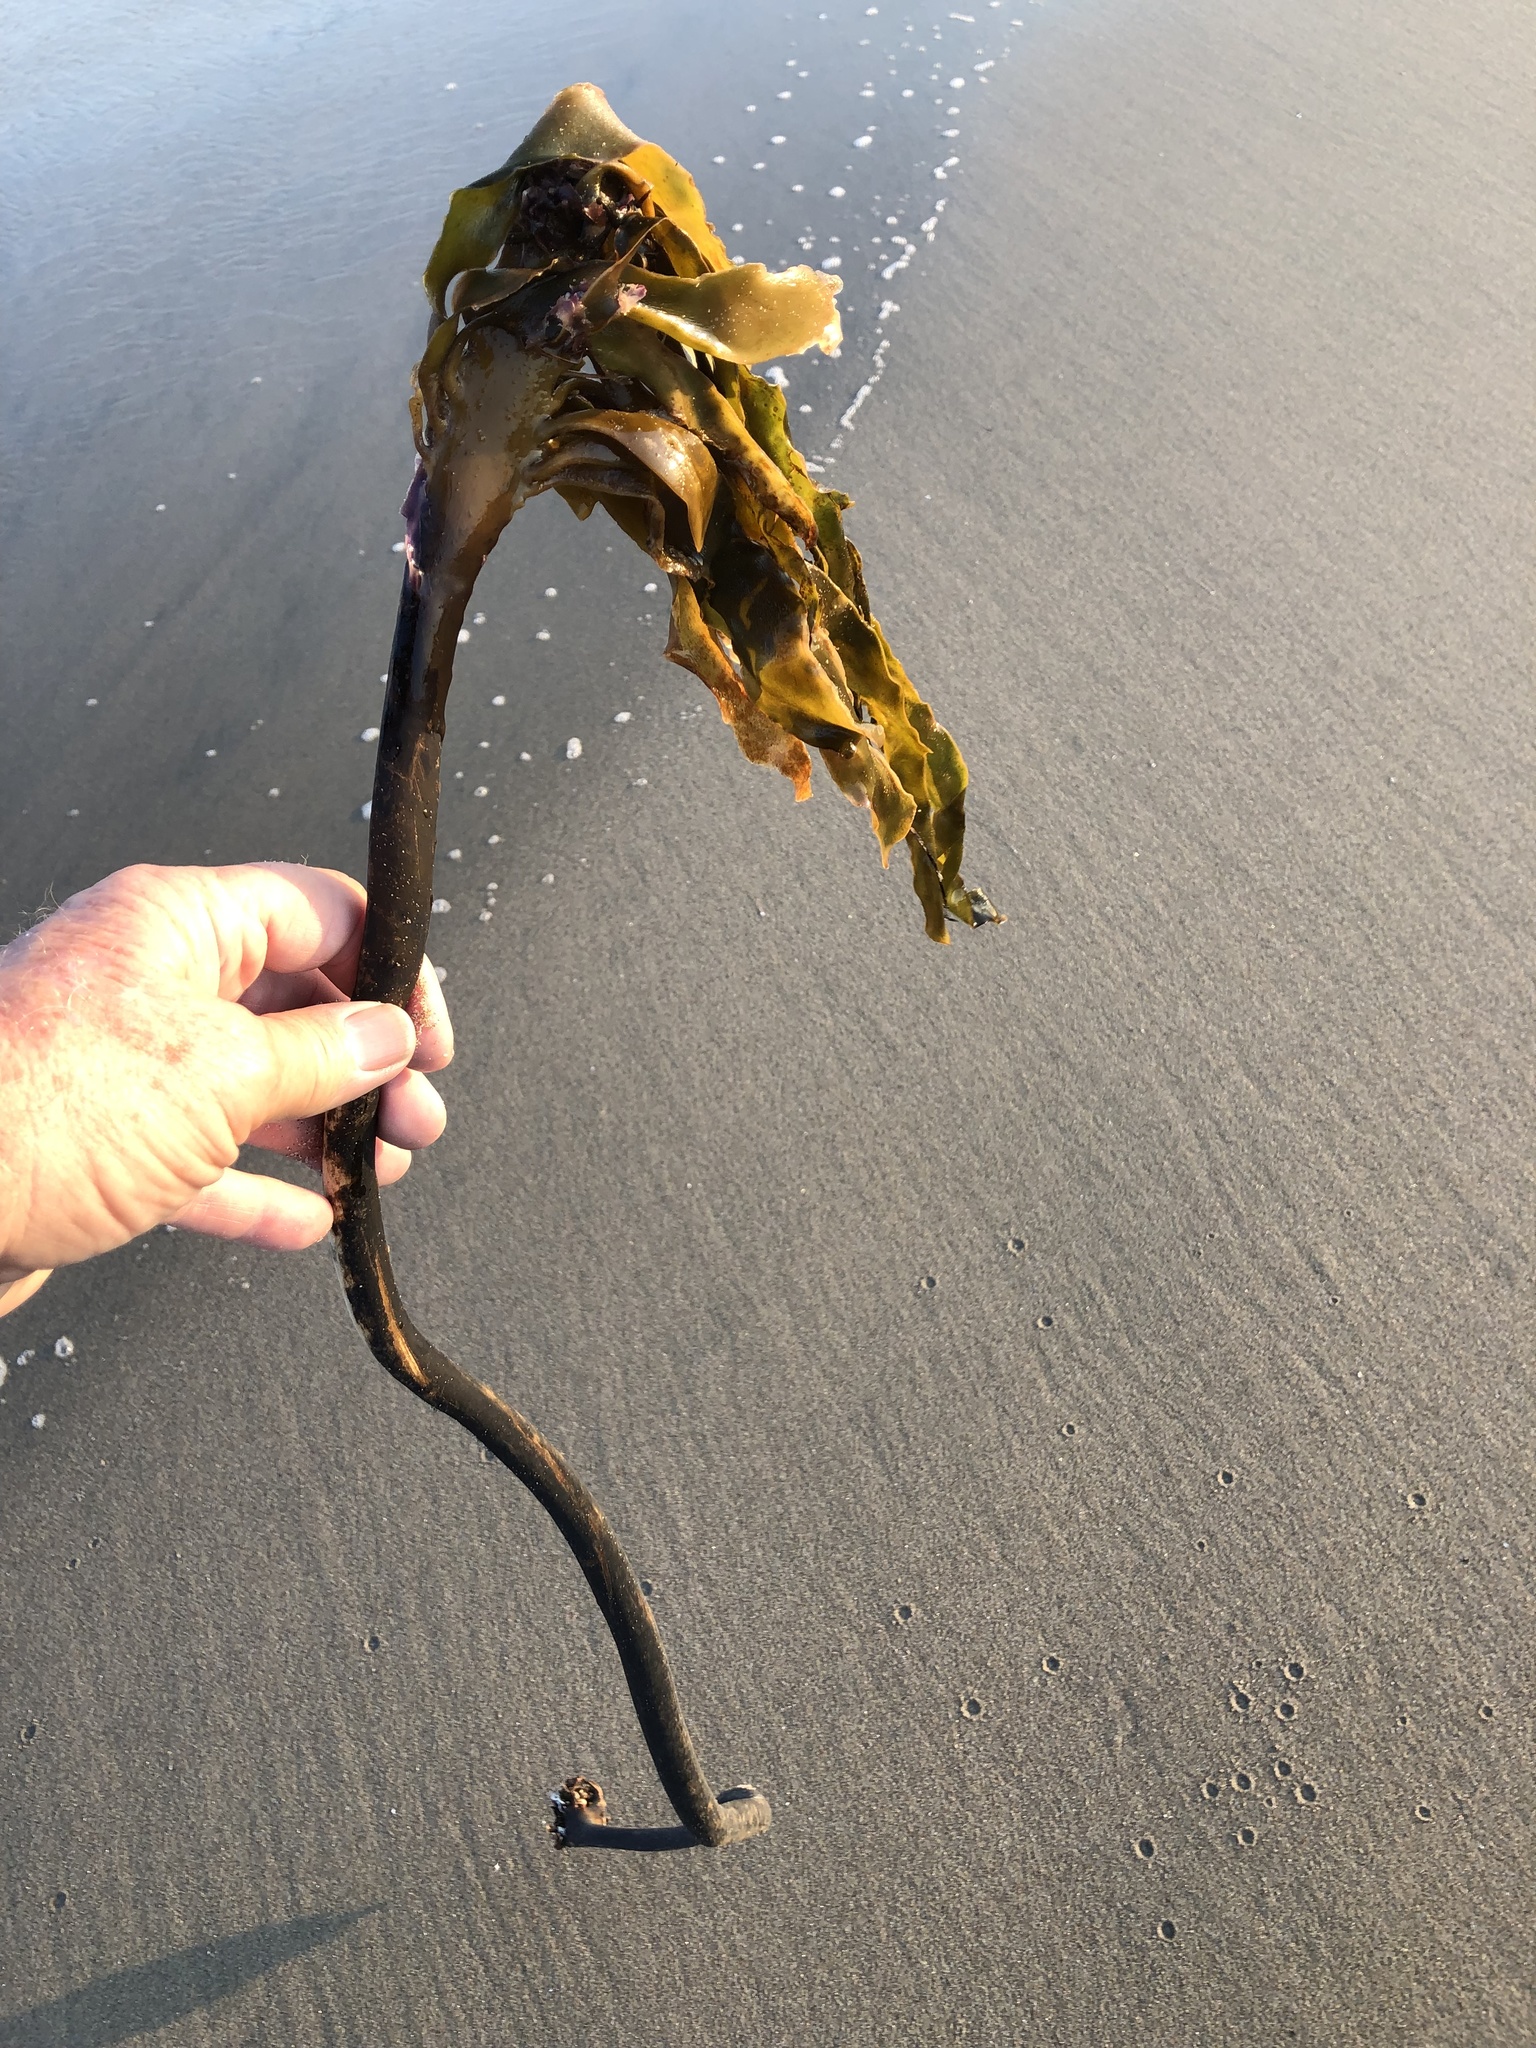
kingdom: Chromista
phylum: Ochrophyta
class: Phaeophyceae
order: Laminariales
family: Alariaceae
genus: Pterygophora
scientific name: Pterygophora californica
